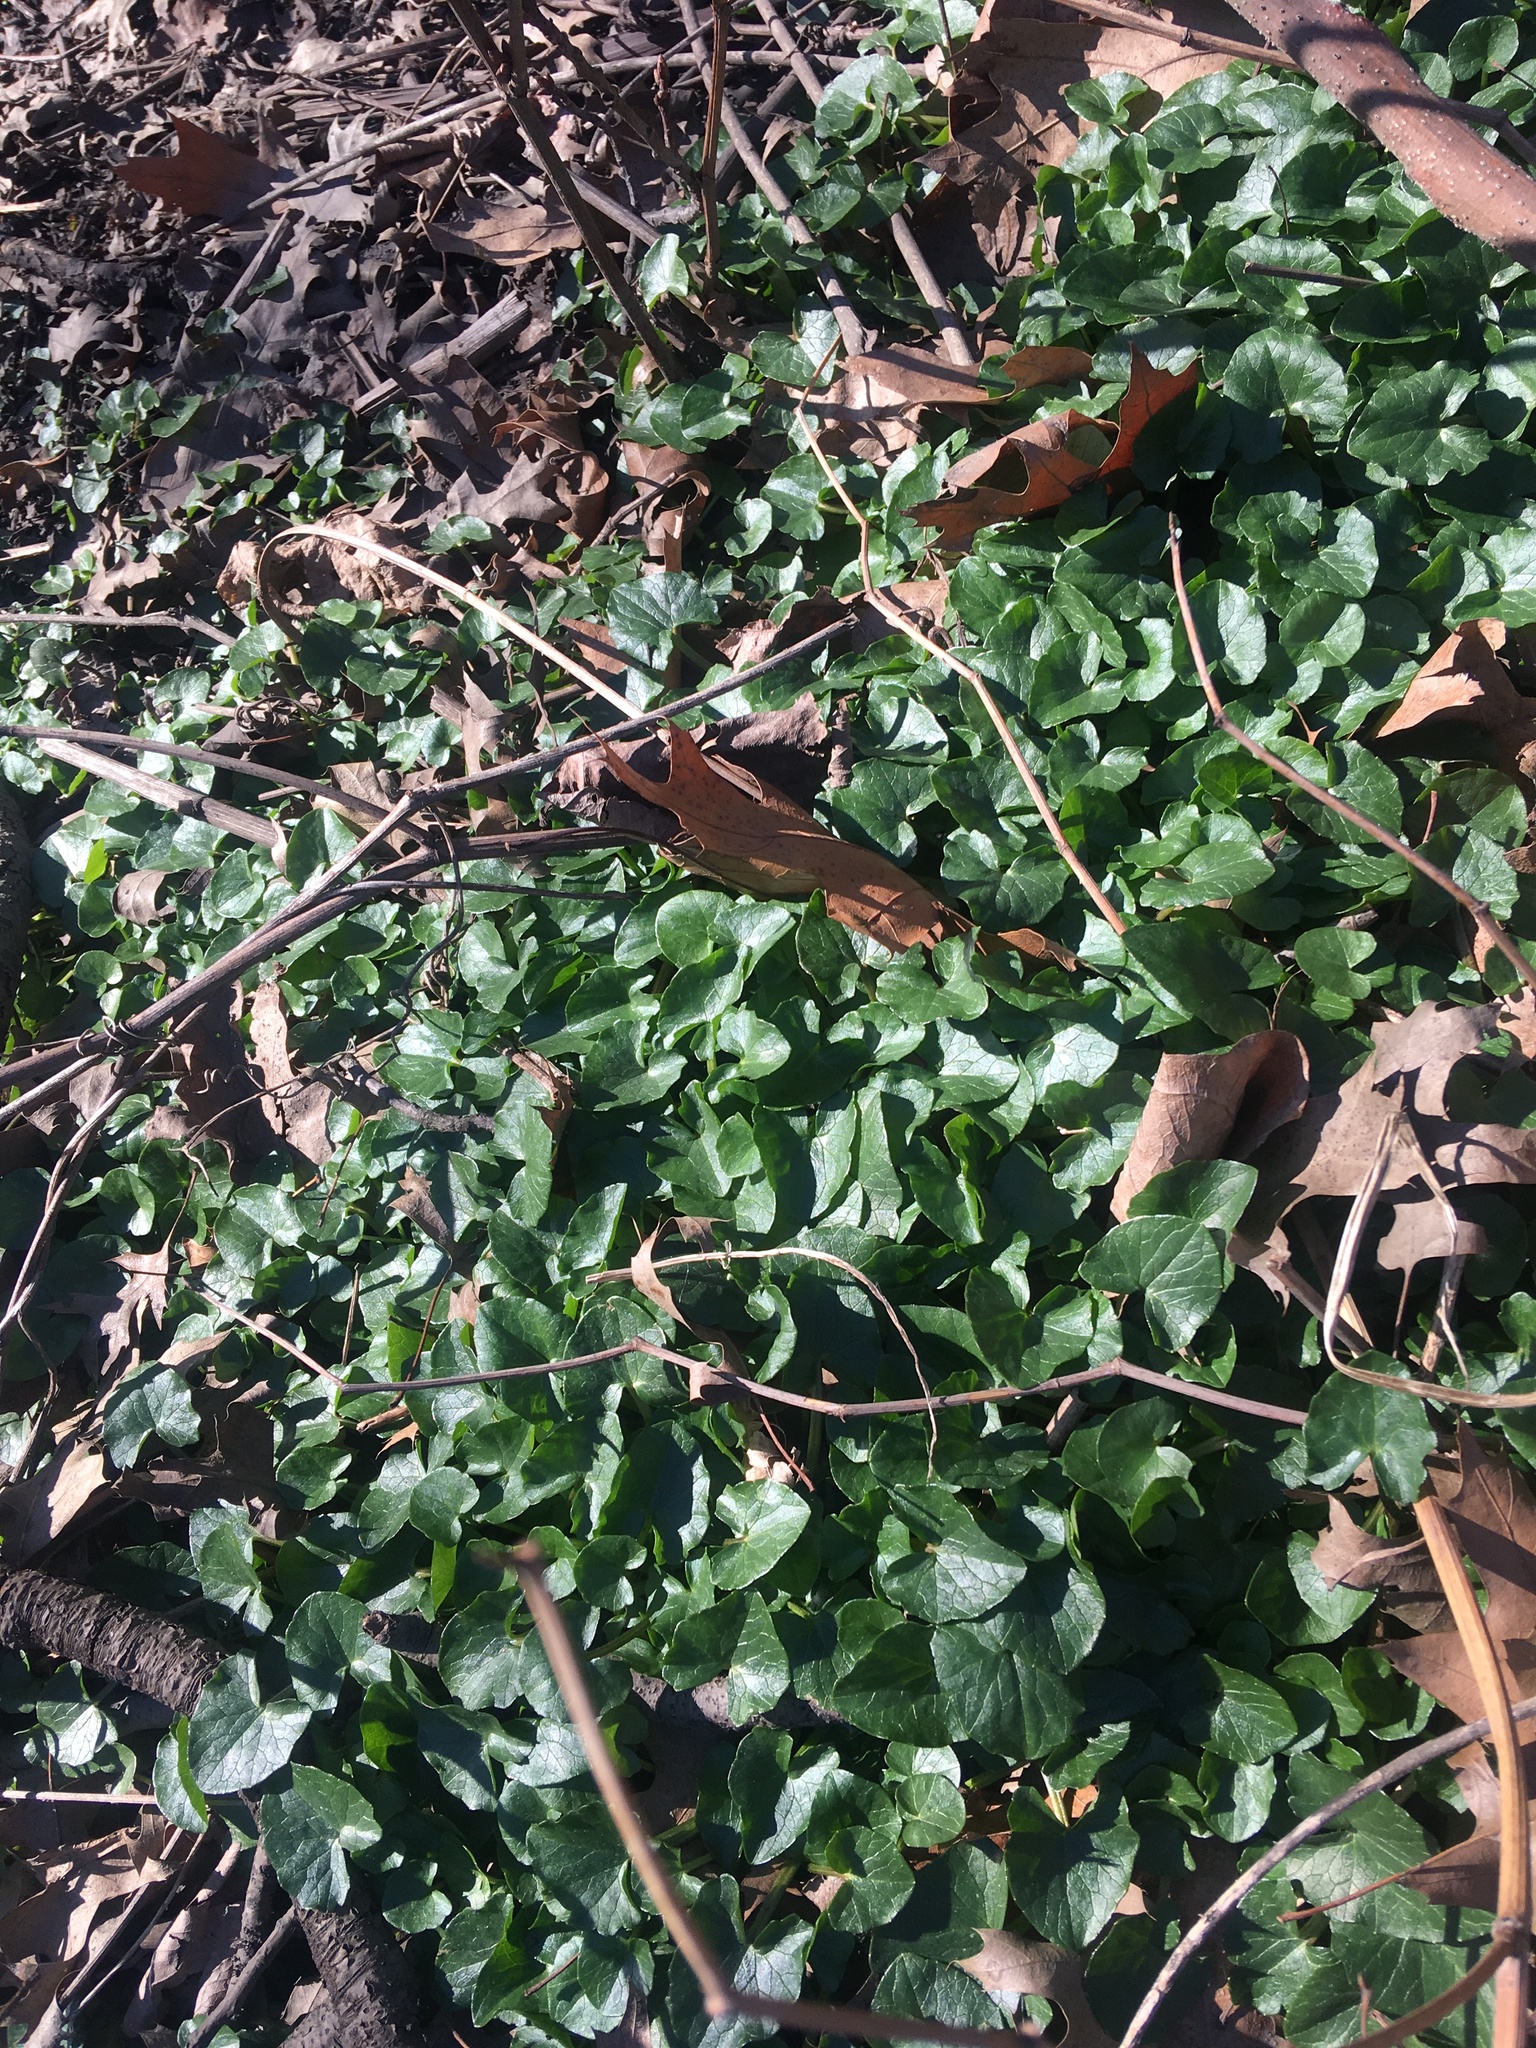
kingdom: Plantae
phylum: Tracheophyta
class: Magnoliopsida
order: Ranunculales
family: Ranunculaceae
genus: Ficaria
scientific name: Ficaria verna
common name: Lesser celandine
